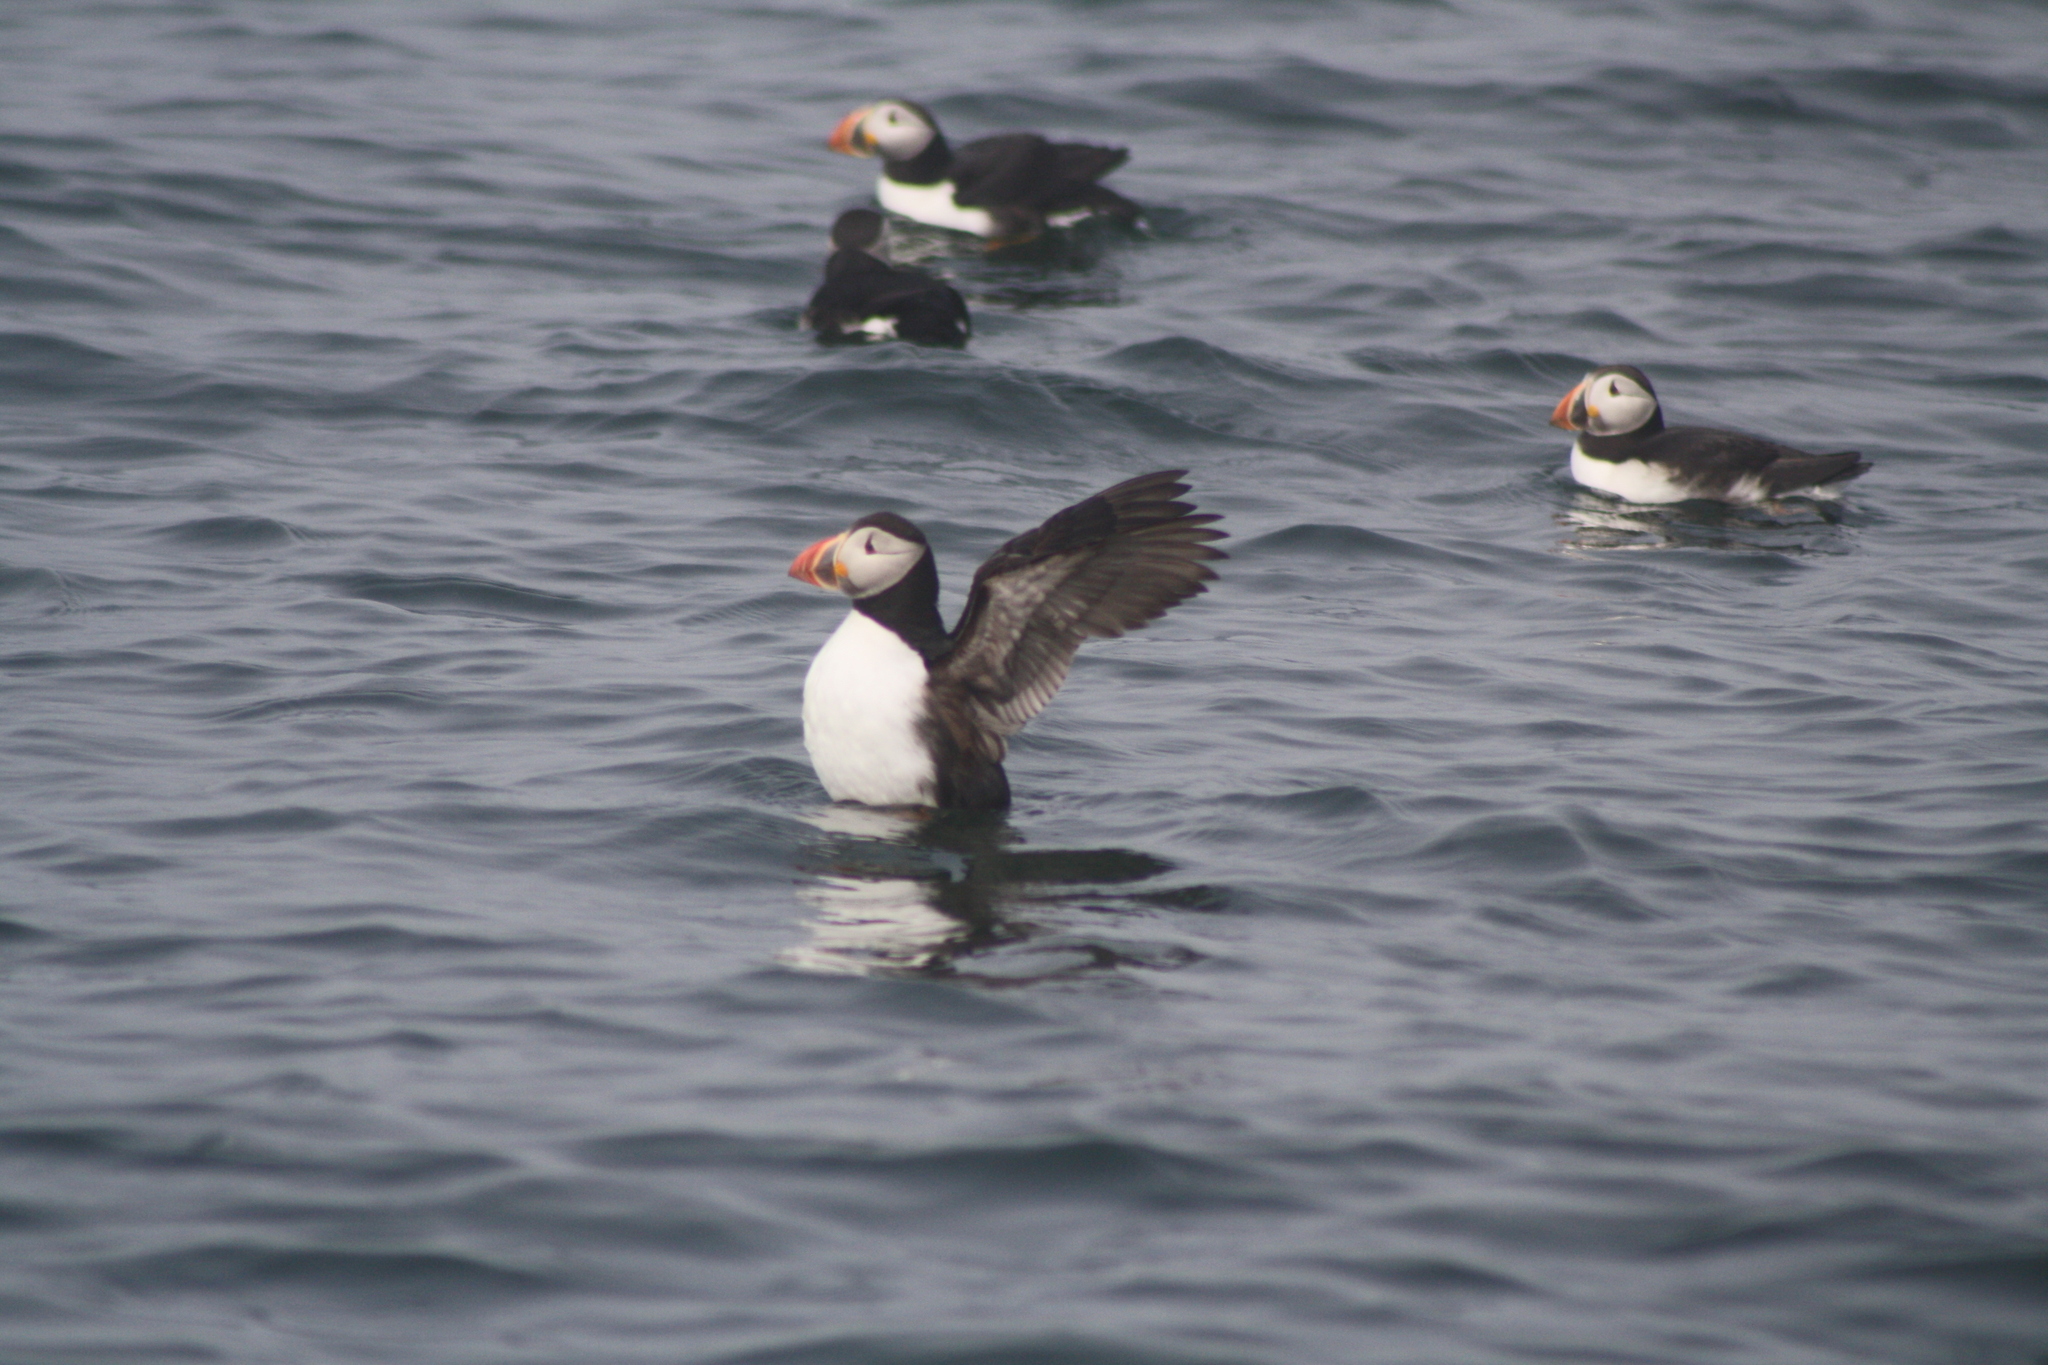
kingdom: Animalia
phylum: Chordata
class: Aves
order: Charadriiformes
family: Alcidae
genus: Fratercula
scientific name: Fratercula arctica
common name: Atlantic puffin
